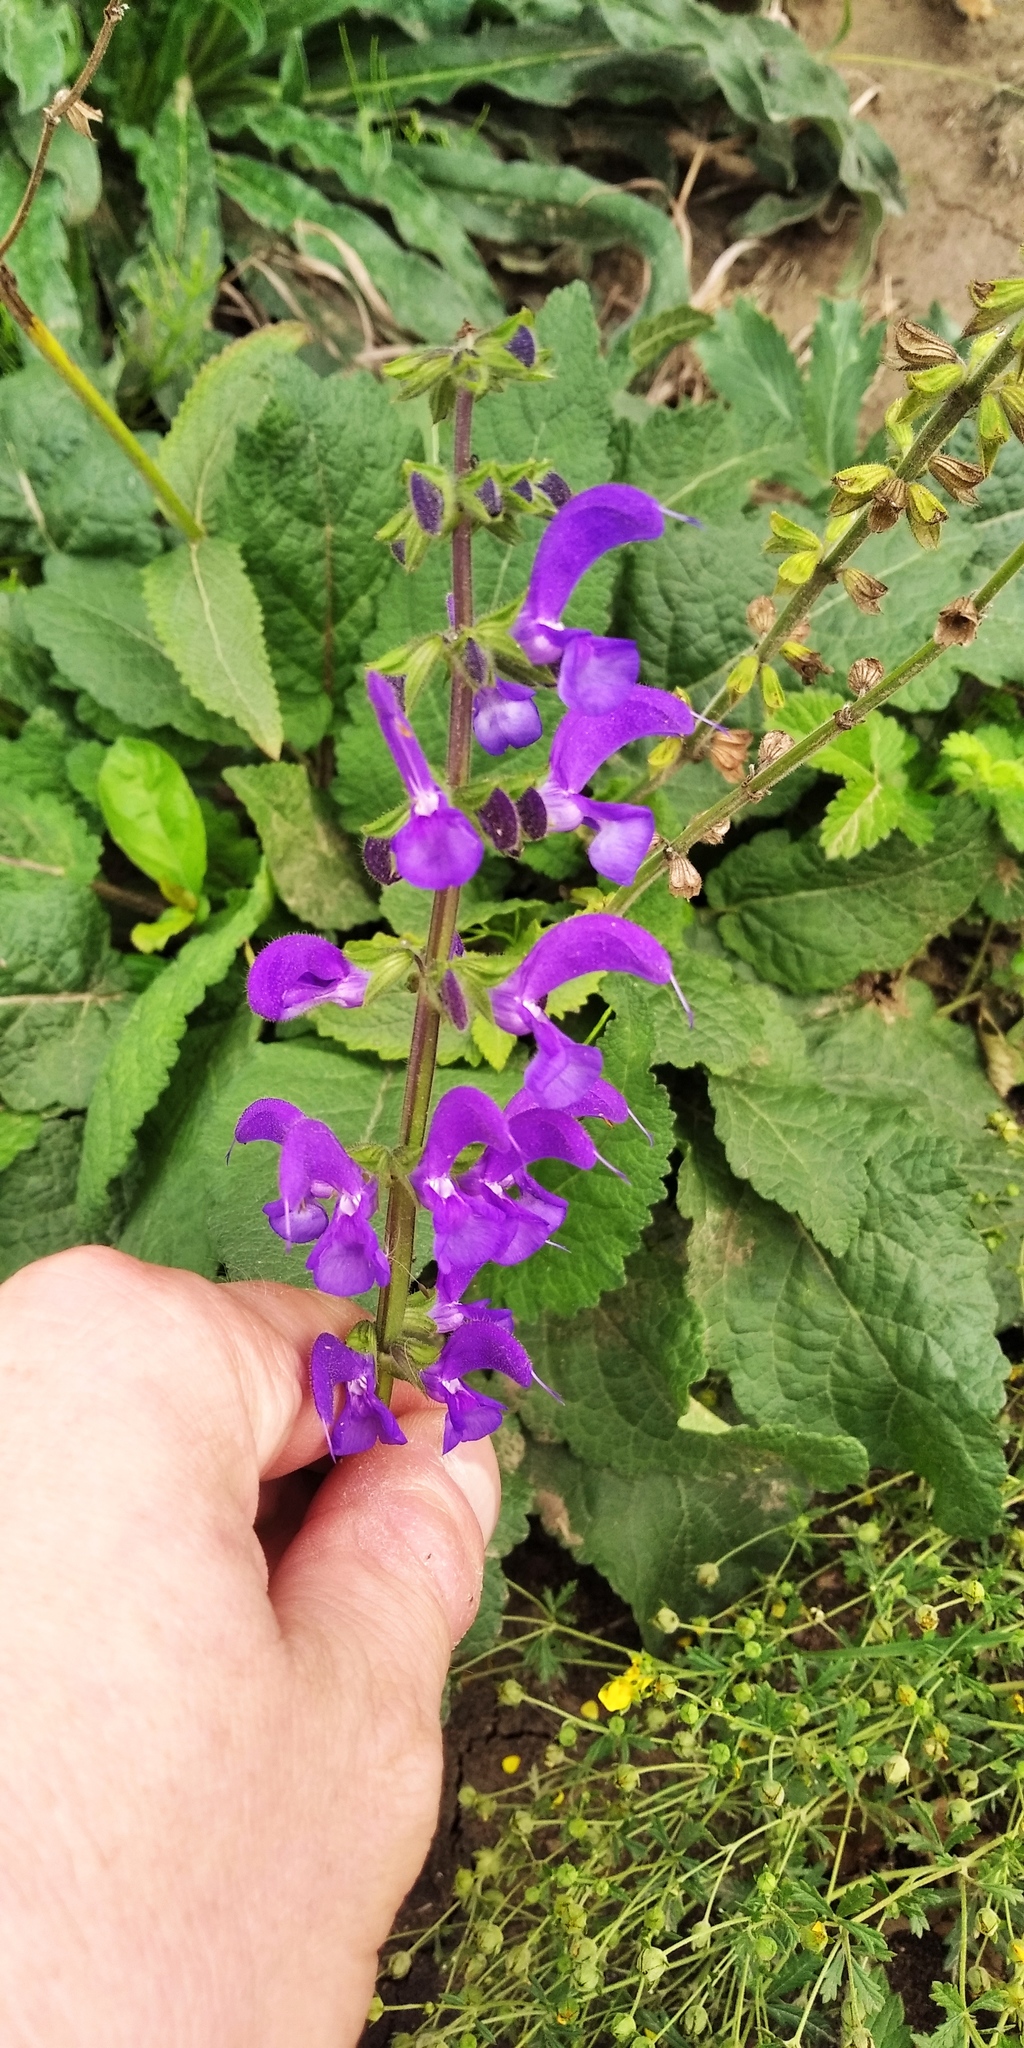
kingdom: Plantae
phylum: Tracheophyta
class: Magnoliopsida
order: Lamiales
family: Lamiaceae
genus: Salvia
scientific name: Salvia pratensis
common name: Meadow sage
